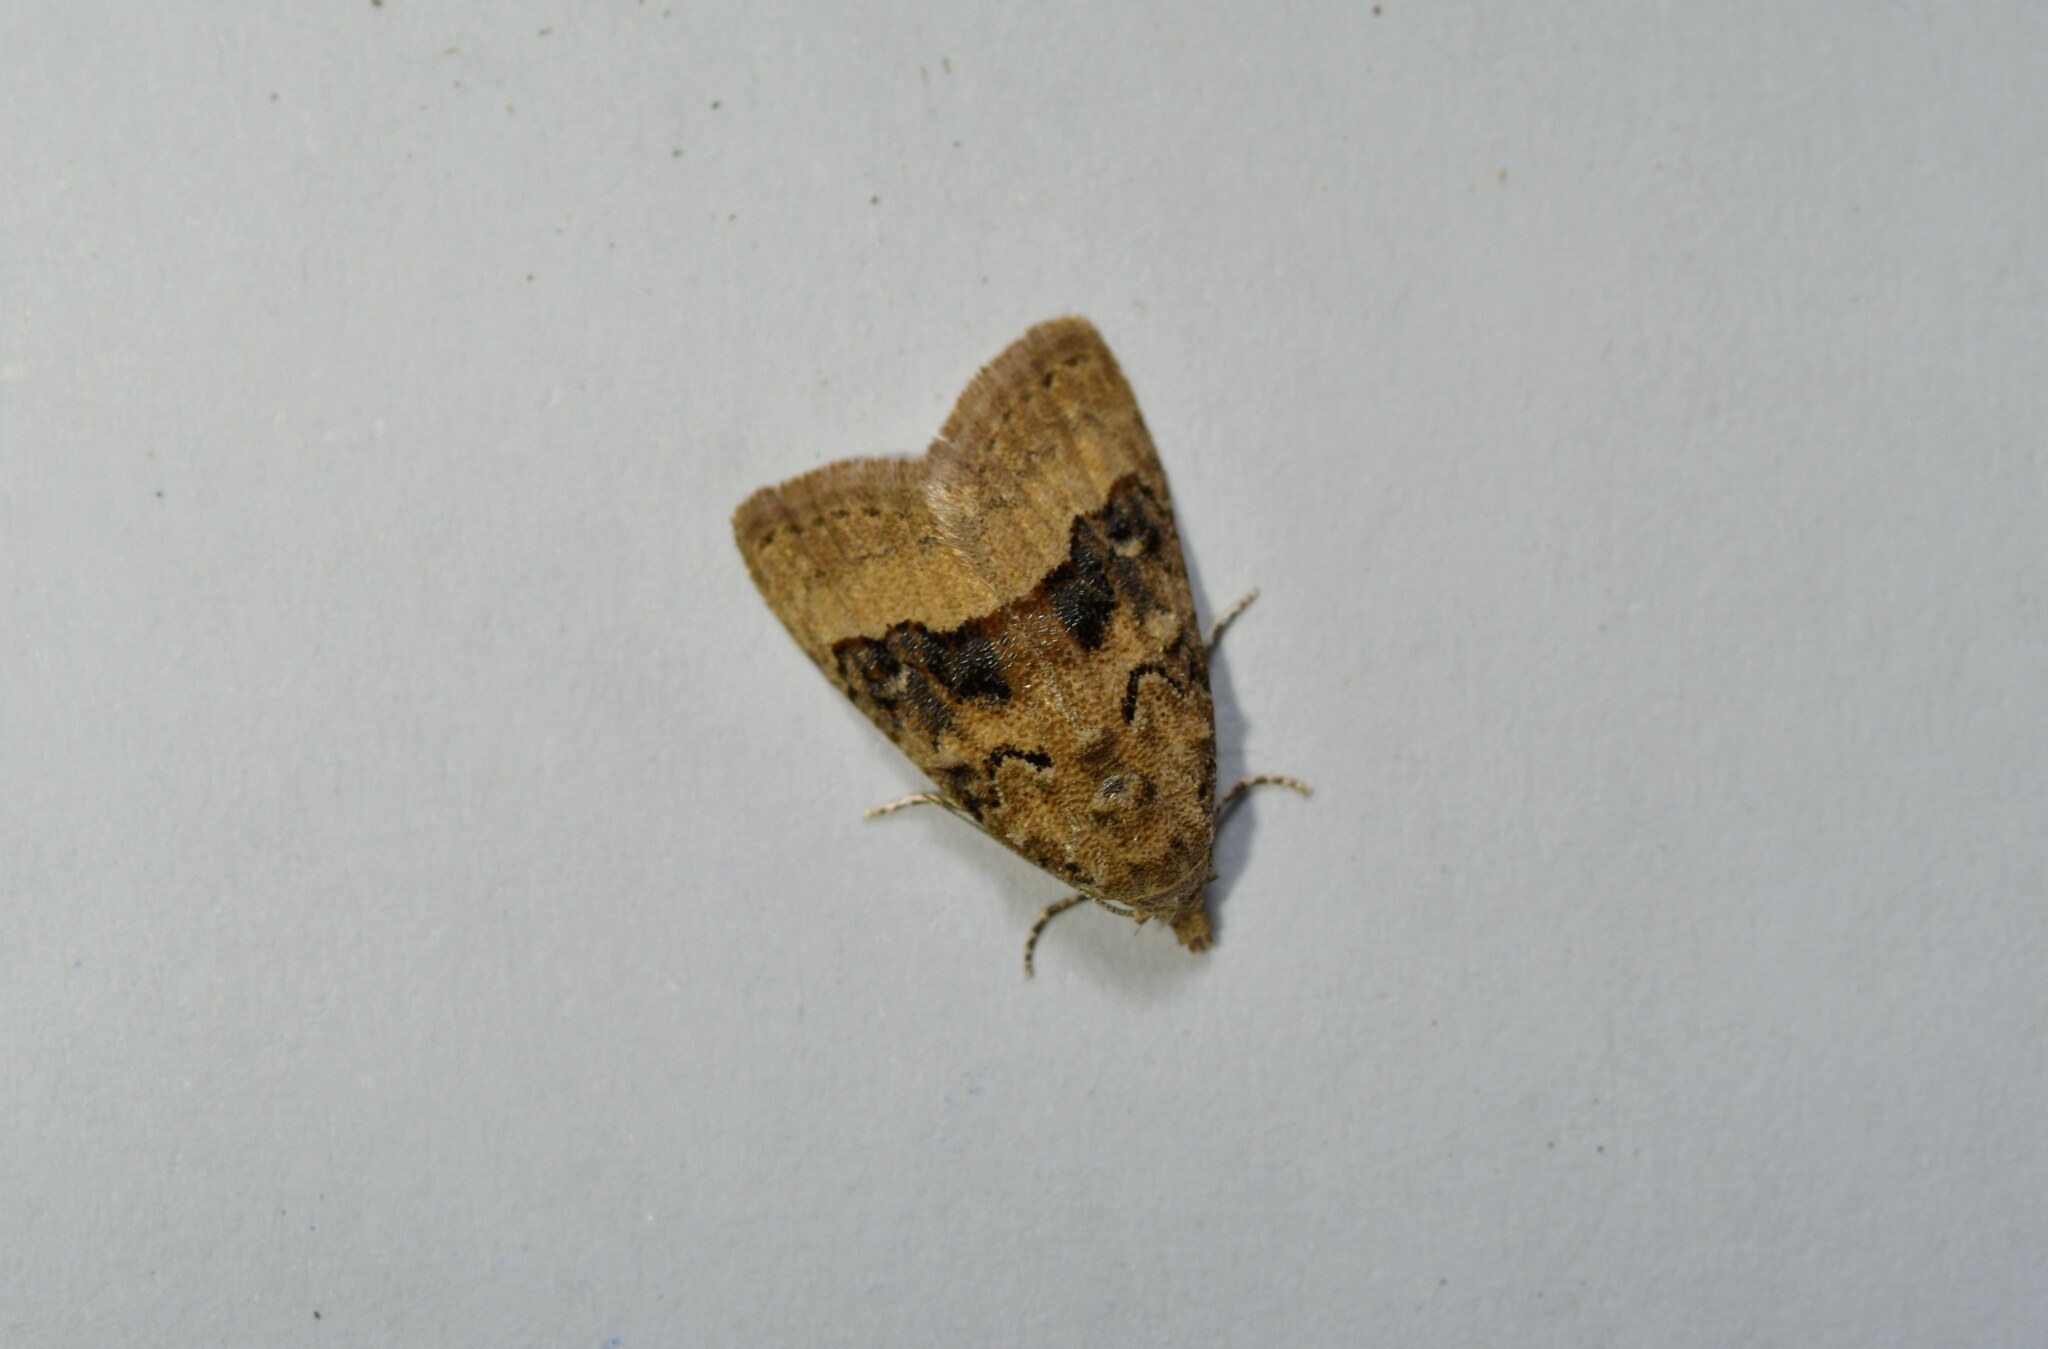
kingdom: Animalia
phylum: Arthropoda
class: Insecta
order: Lepidoptera
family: Nolidae
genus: Nola
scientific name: Nola squalida
